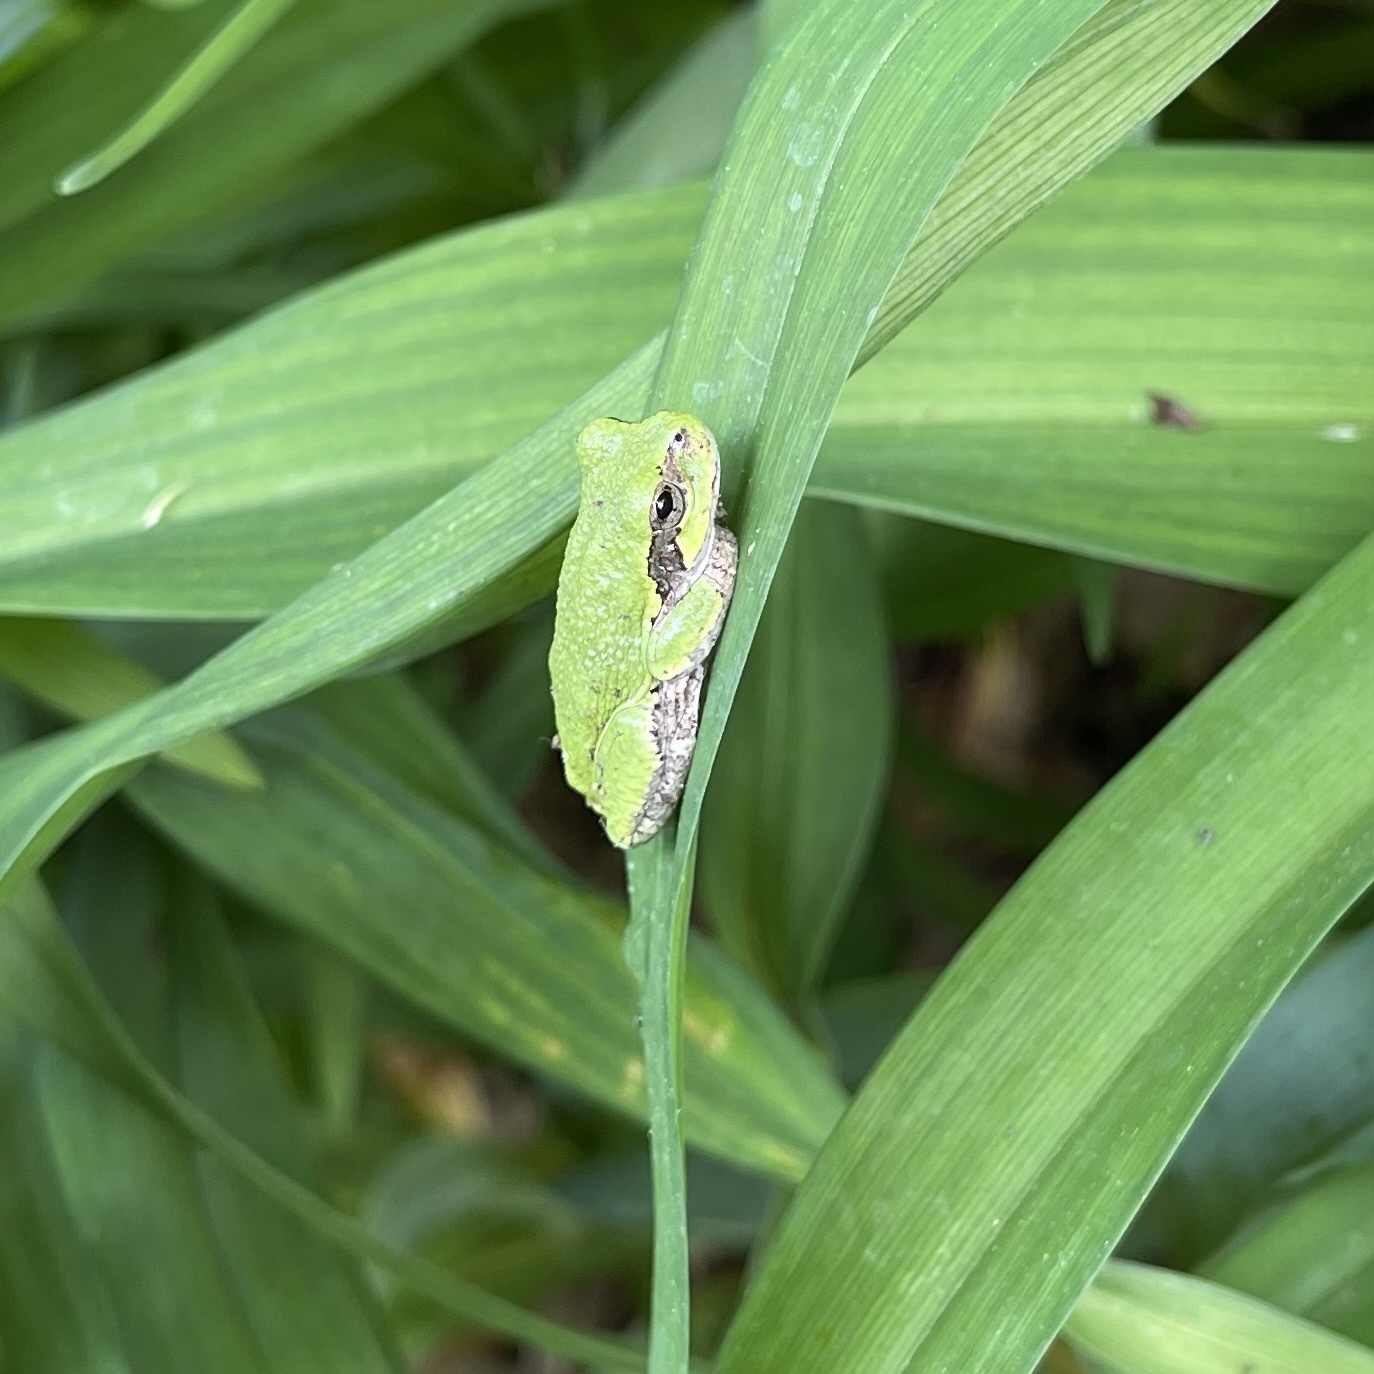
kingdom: Animalia
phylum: Chordata
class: Amphibia
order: Anura
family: Hylidae
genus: Hyla
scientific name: Hyla
